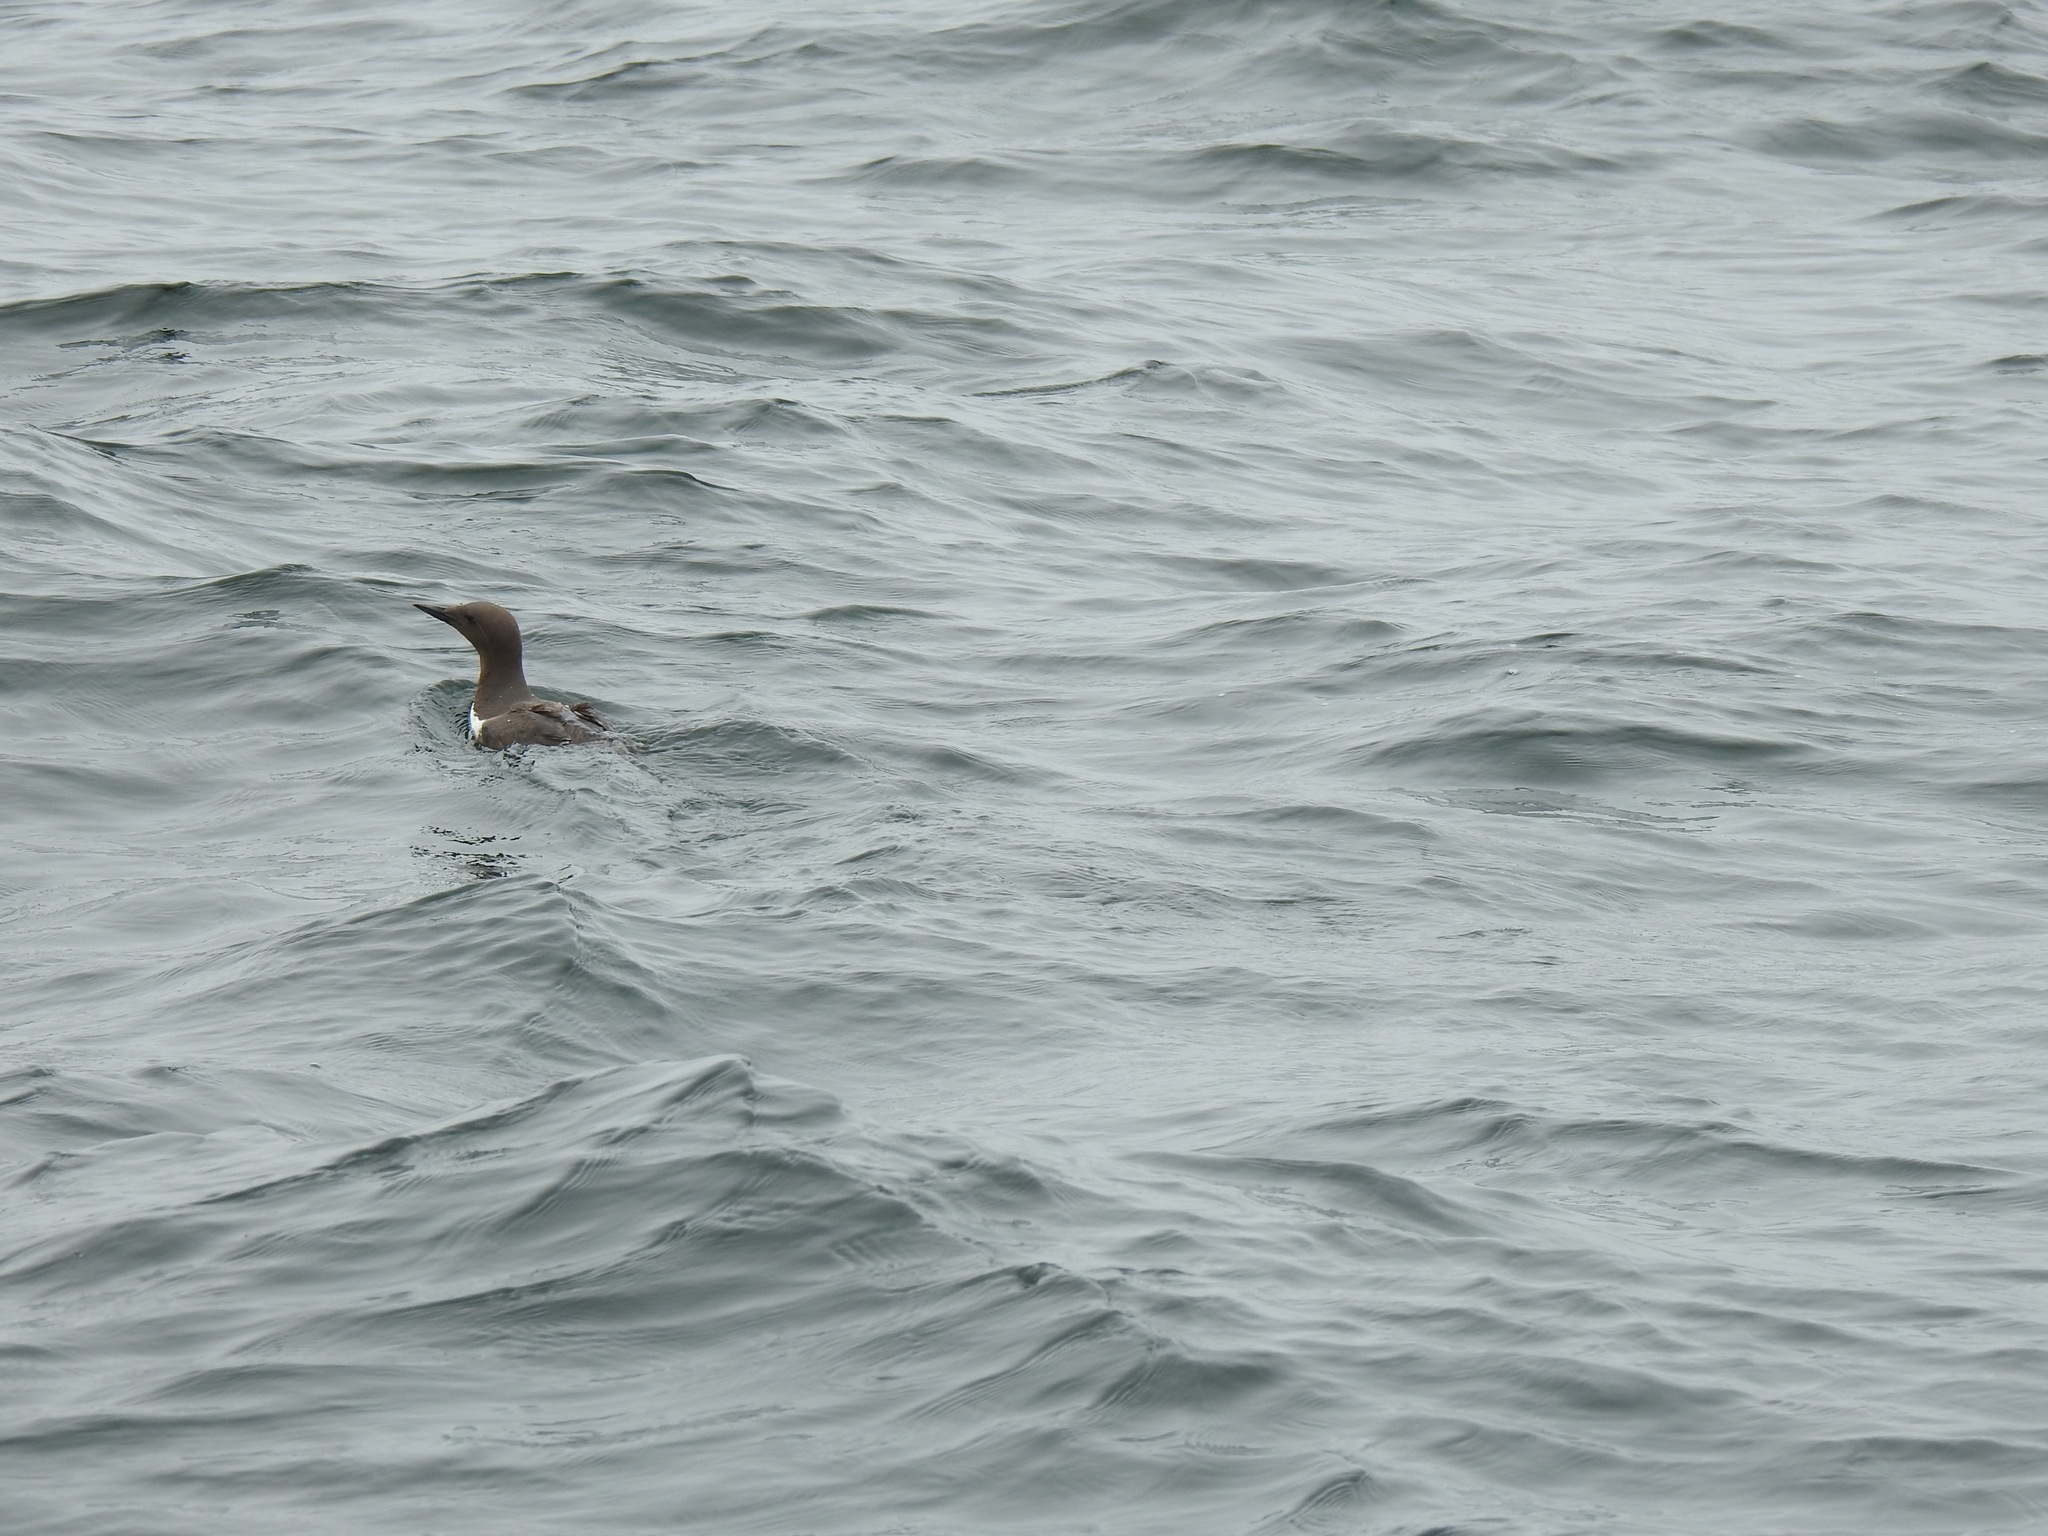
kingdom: Animalia
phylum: Chordata
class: Aves
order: Charadriiformes
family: Alcidae
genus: Uria
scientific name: Uria aalge
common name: Common murre
